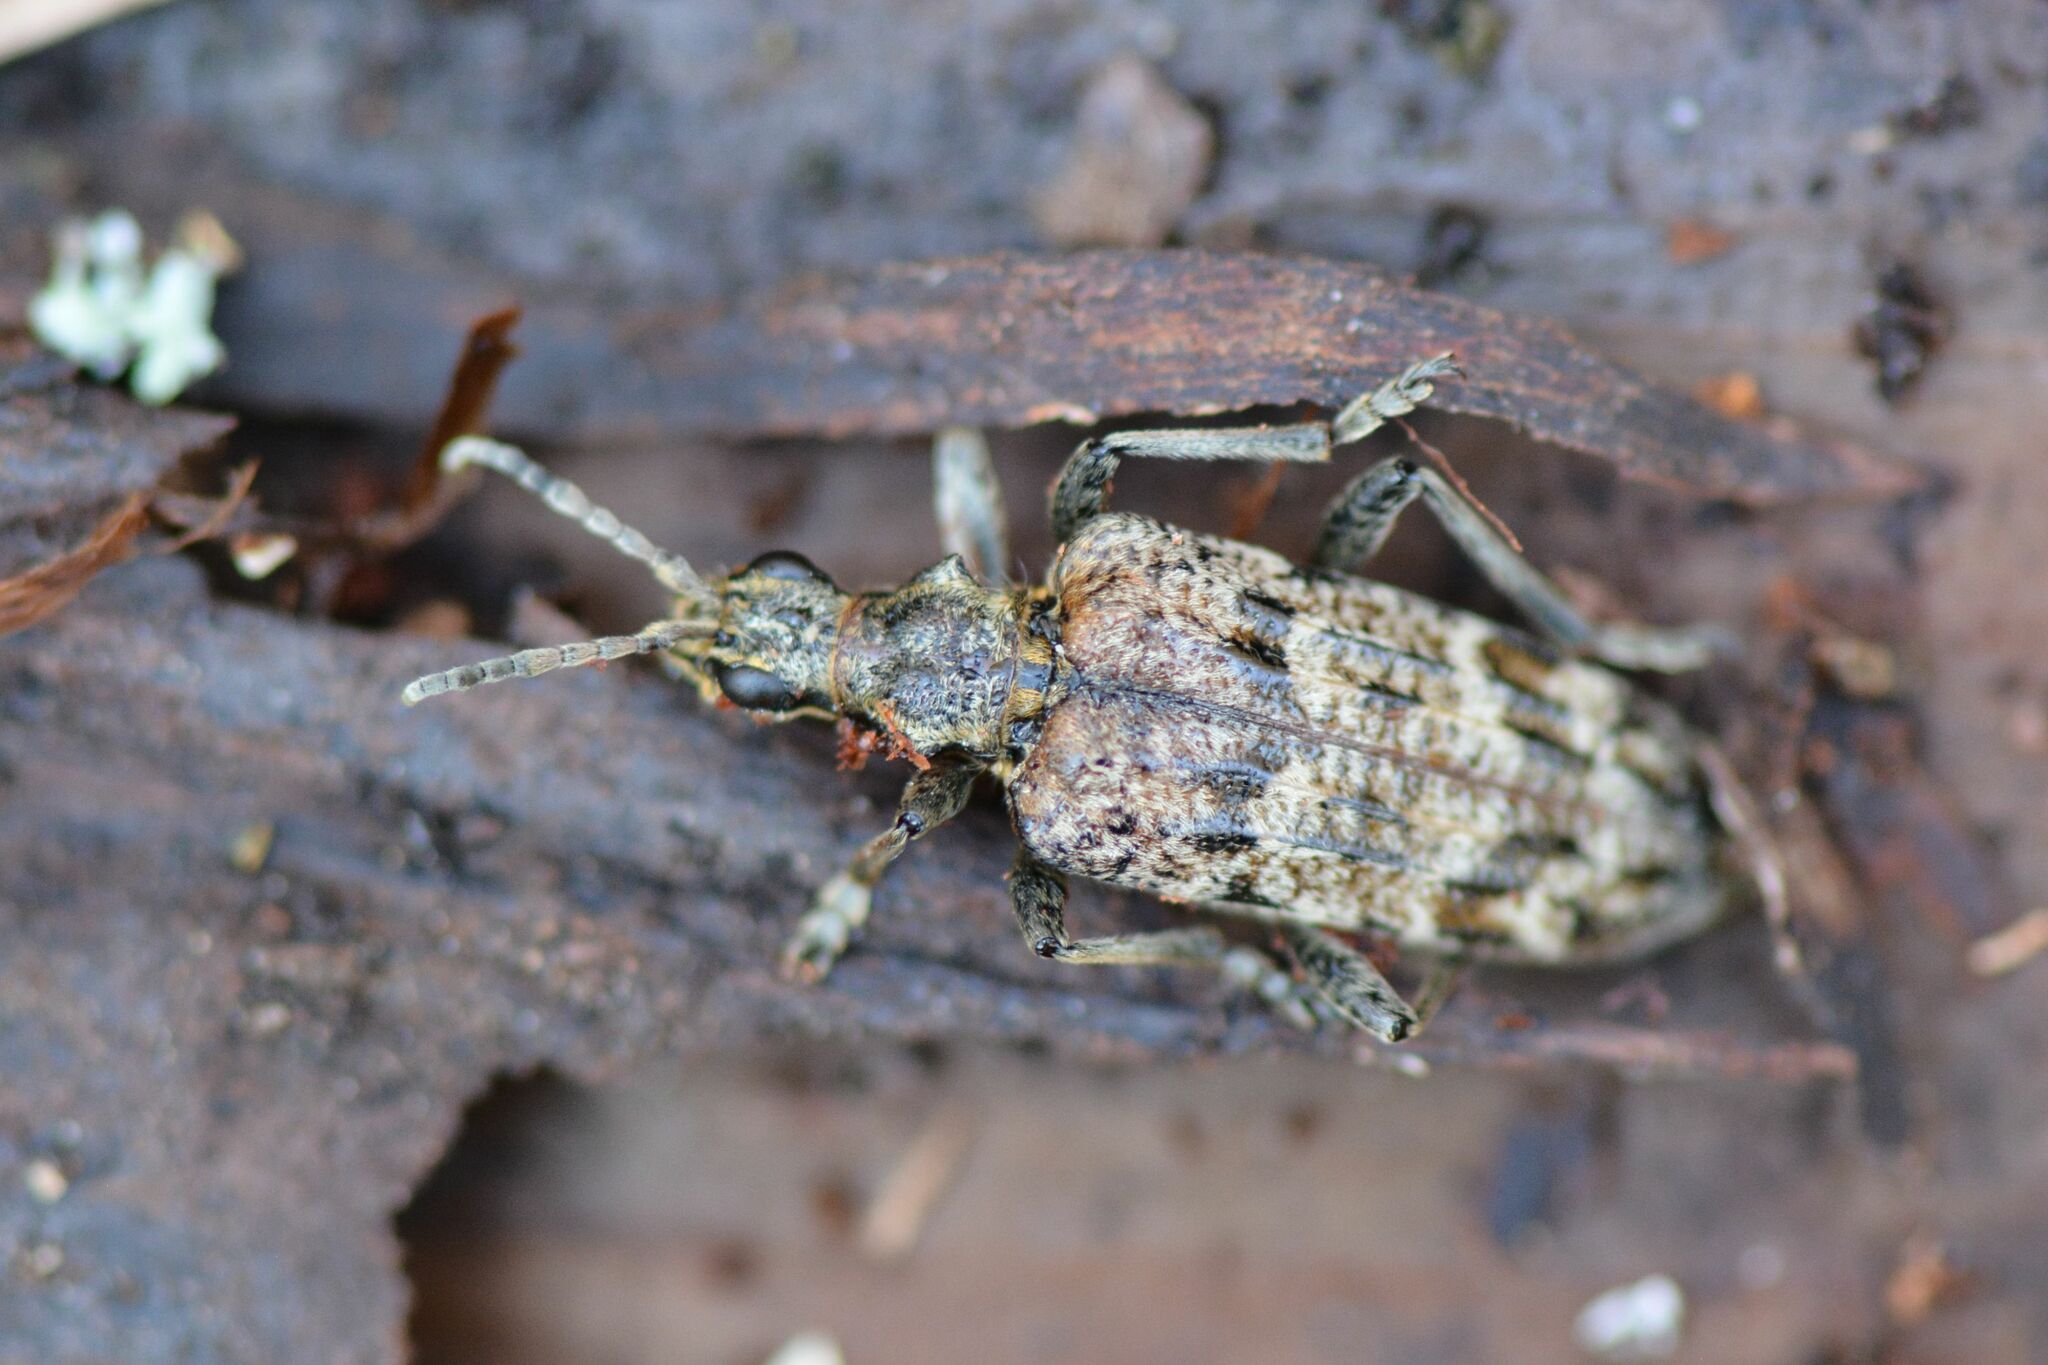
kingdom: Animalia
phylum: Arthropoda
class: Insecta
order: Coleoptera
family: Cerambycidae
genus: Rhagium
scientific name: Rhagium inquisitor
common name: Ribbed pine borer
